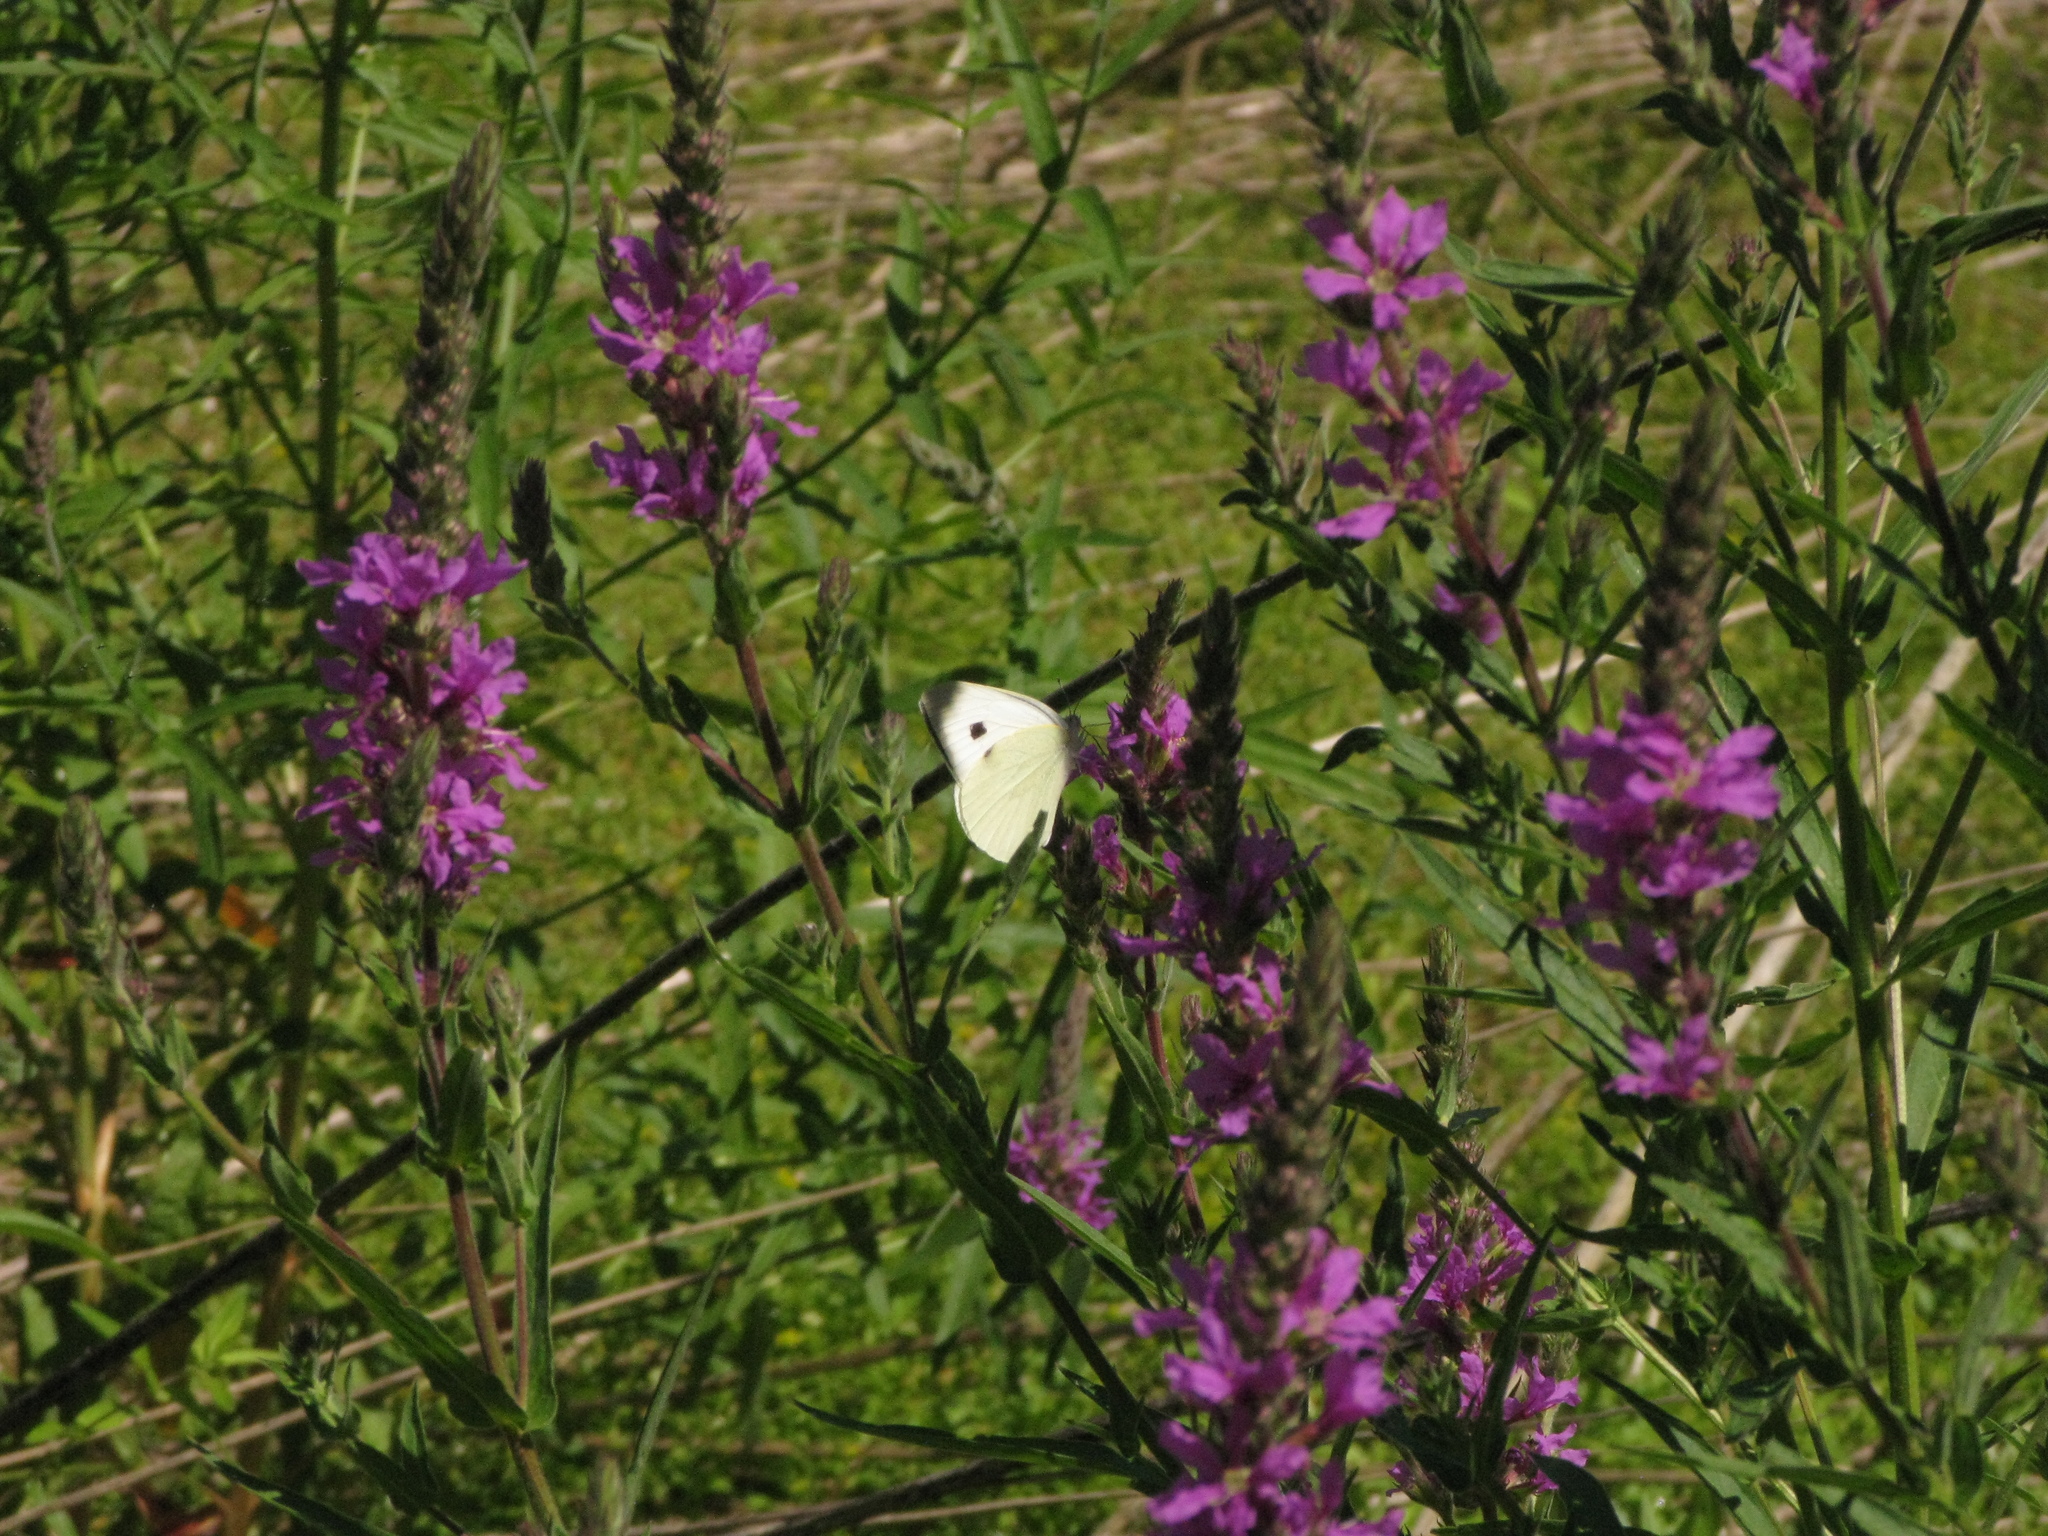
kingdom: Animalia
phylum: Arthropoda
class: Insecta
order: Lepidoptera
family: Pieridae
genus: Pieris
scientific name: Pieris brassicae
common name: Large white
